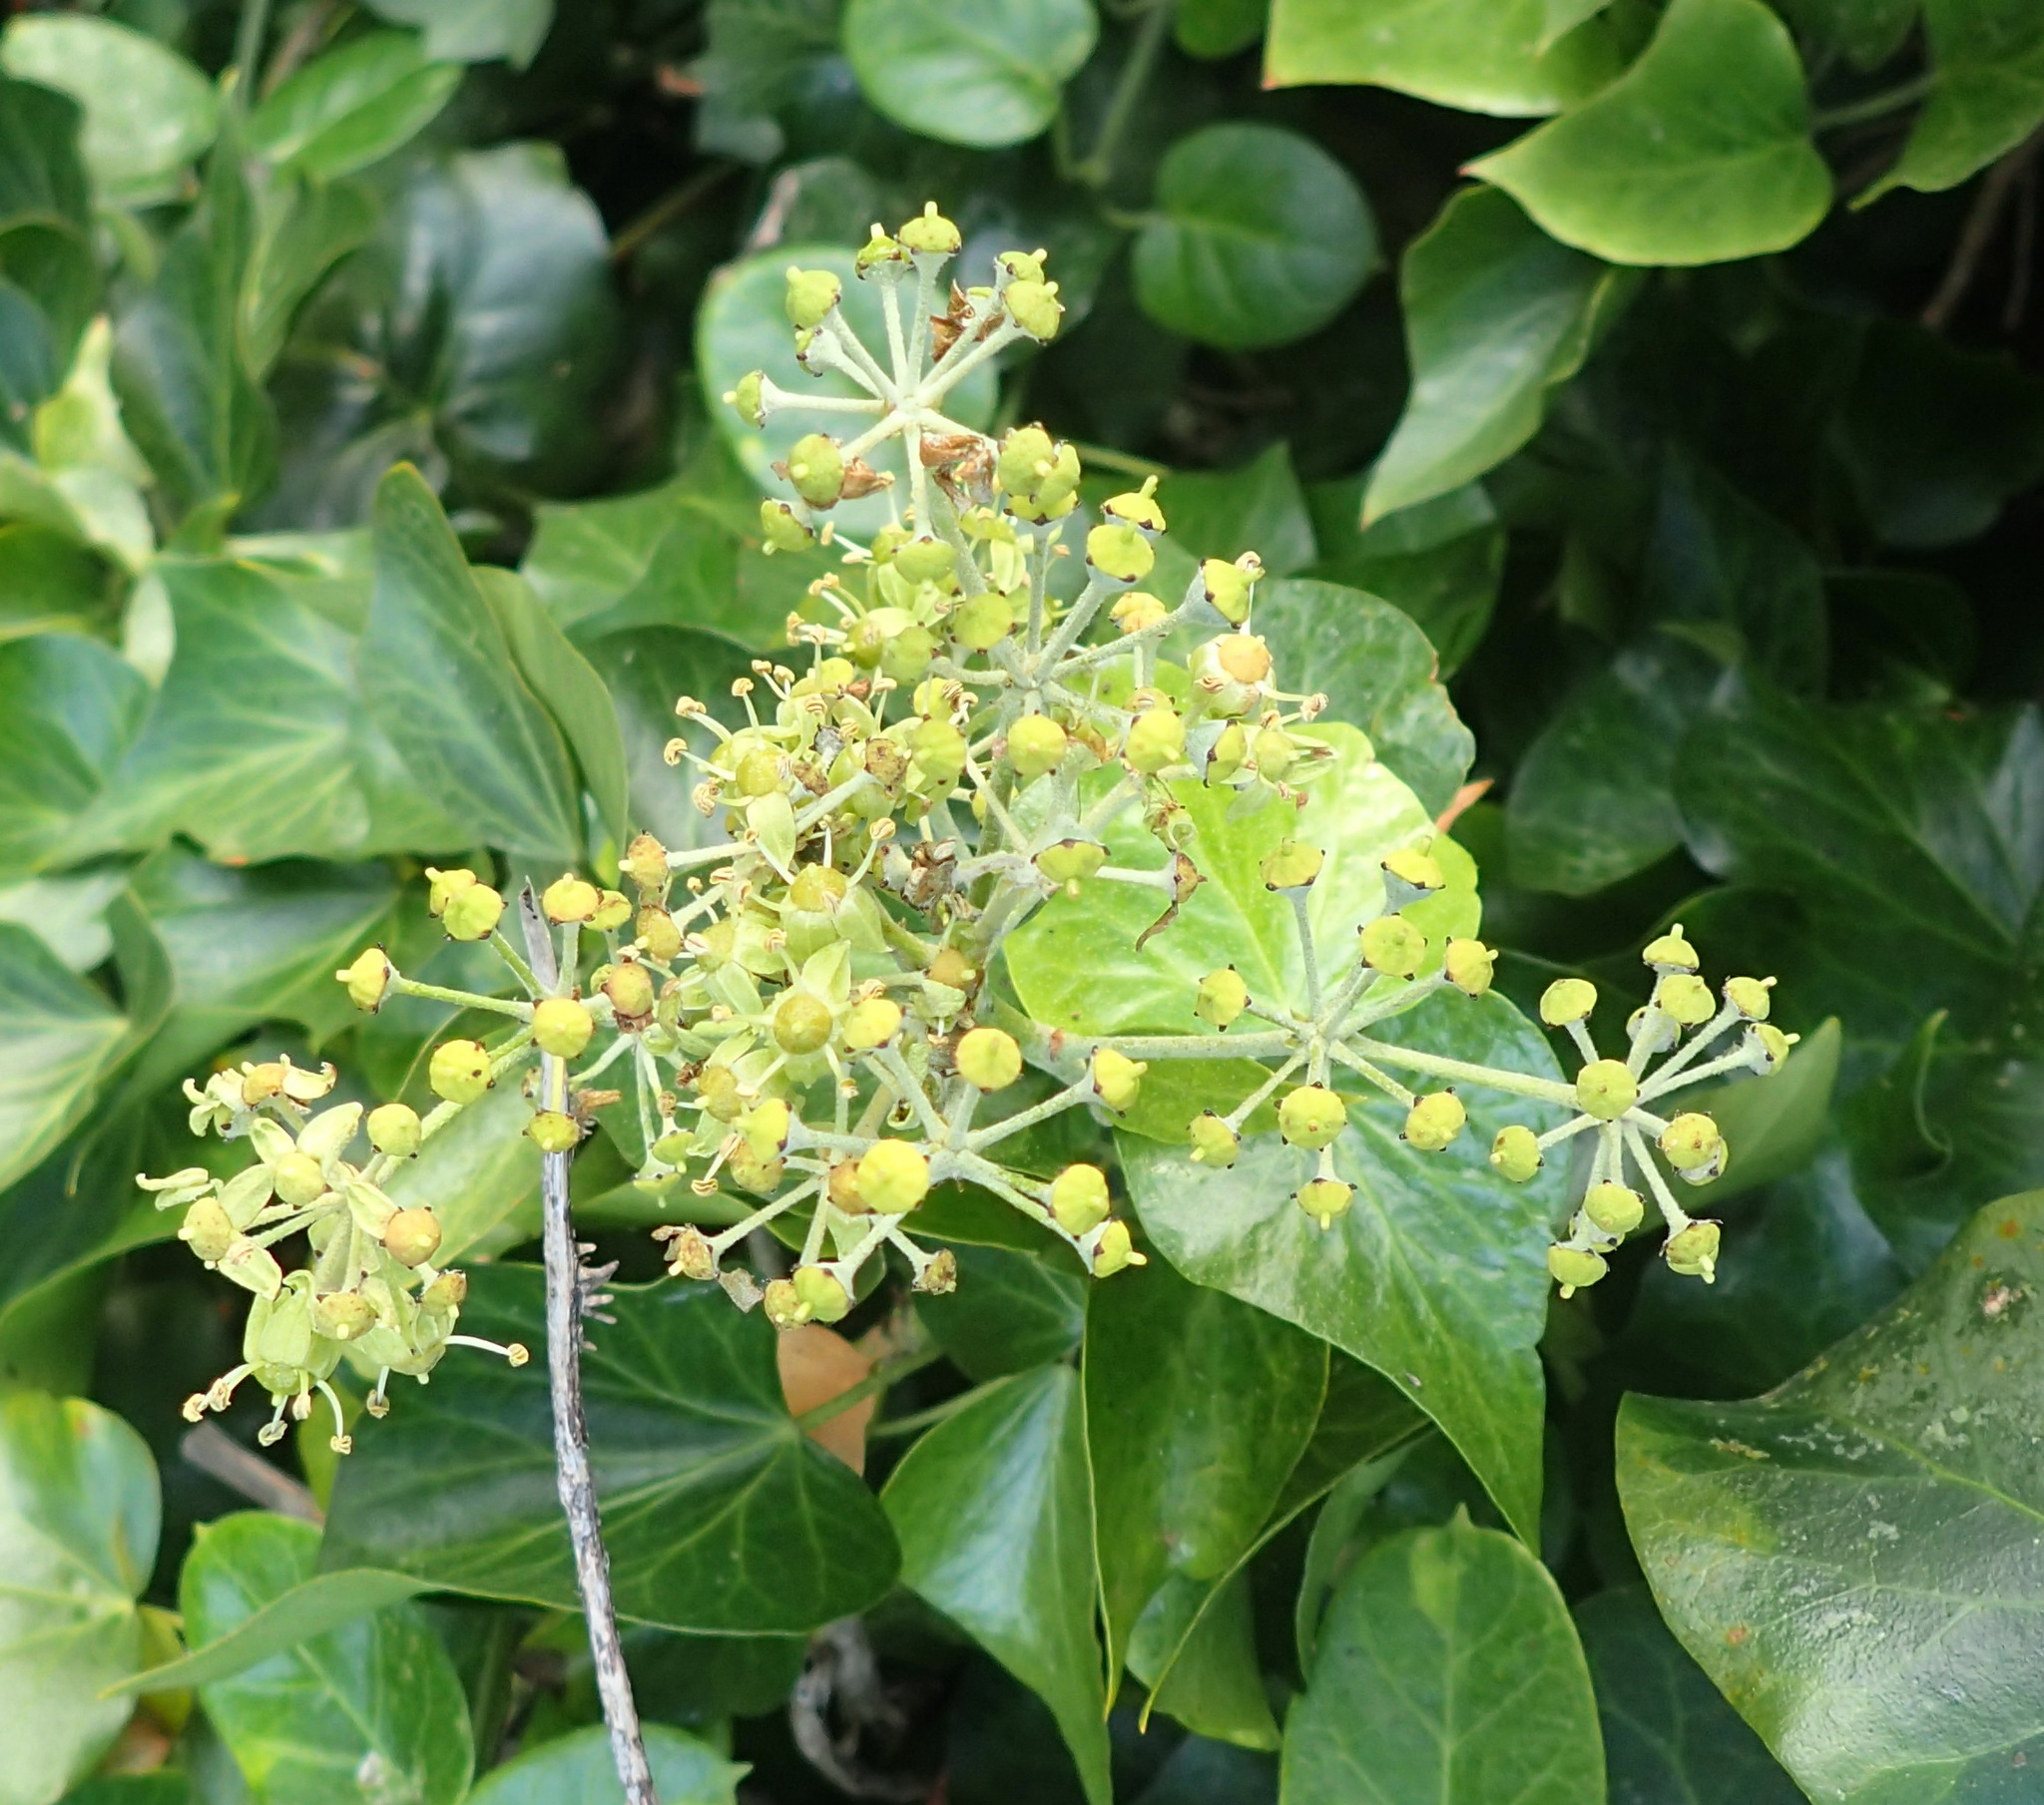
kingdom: Plantae
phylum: Tracheophyta
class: Magnoliopsida
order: Apiales
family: Araliaceae
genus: Hedera
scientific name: Hedera canariensis
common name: Madeira ivy
